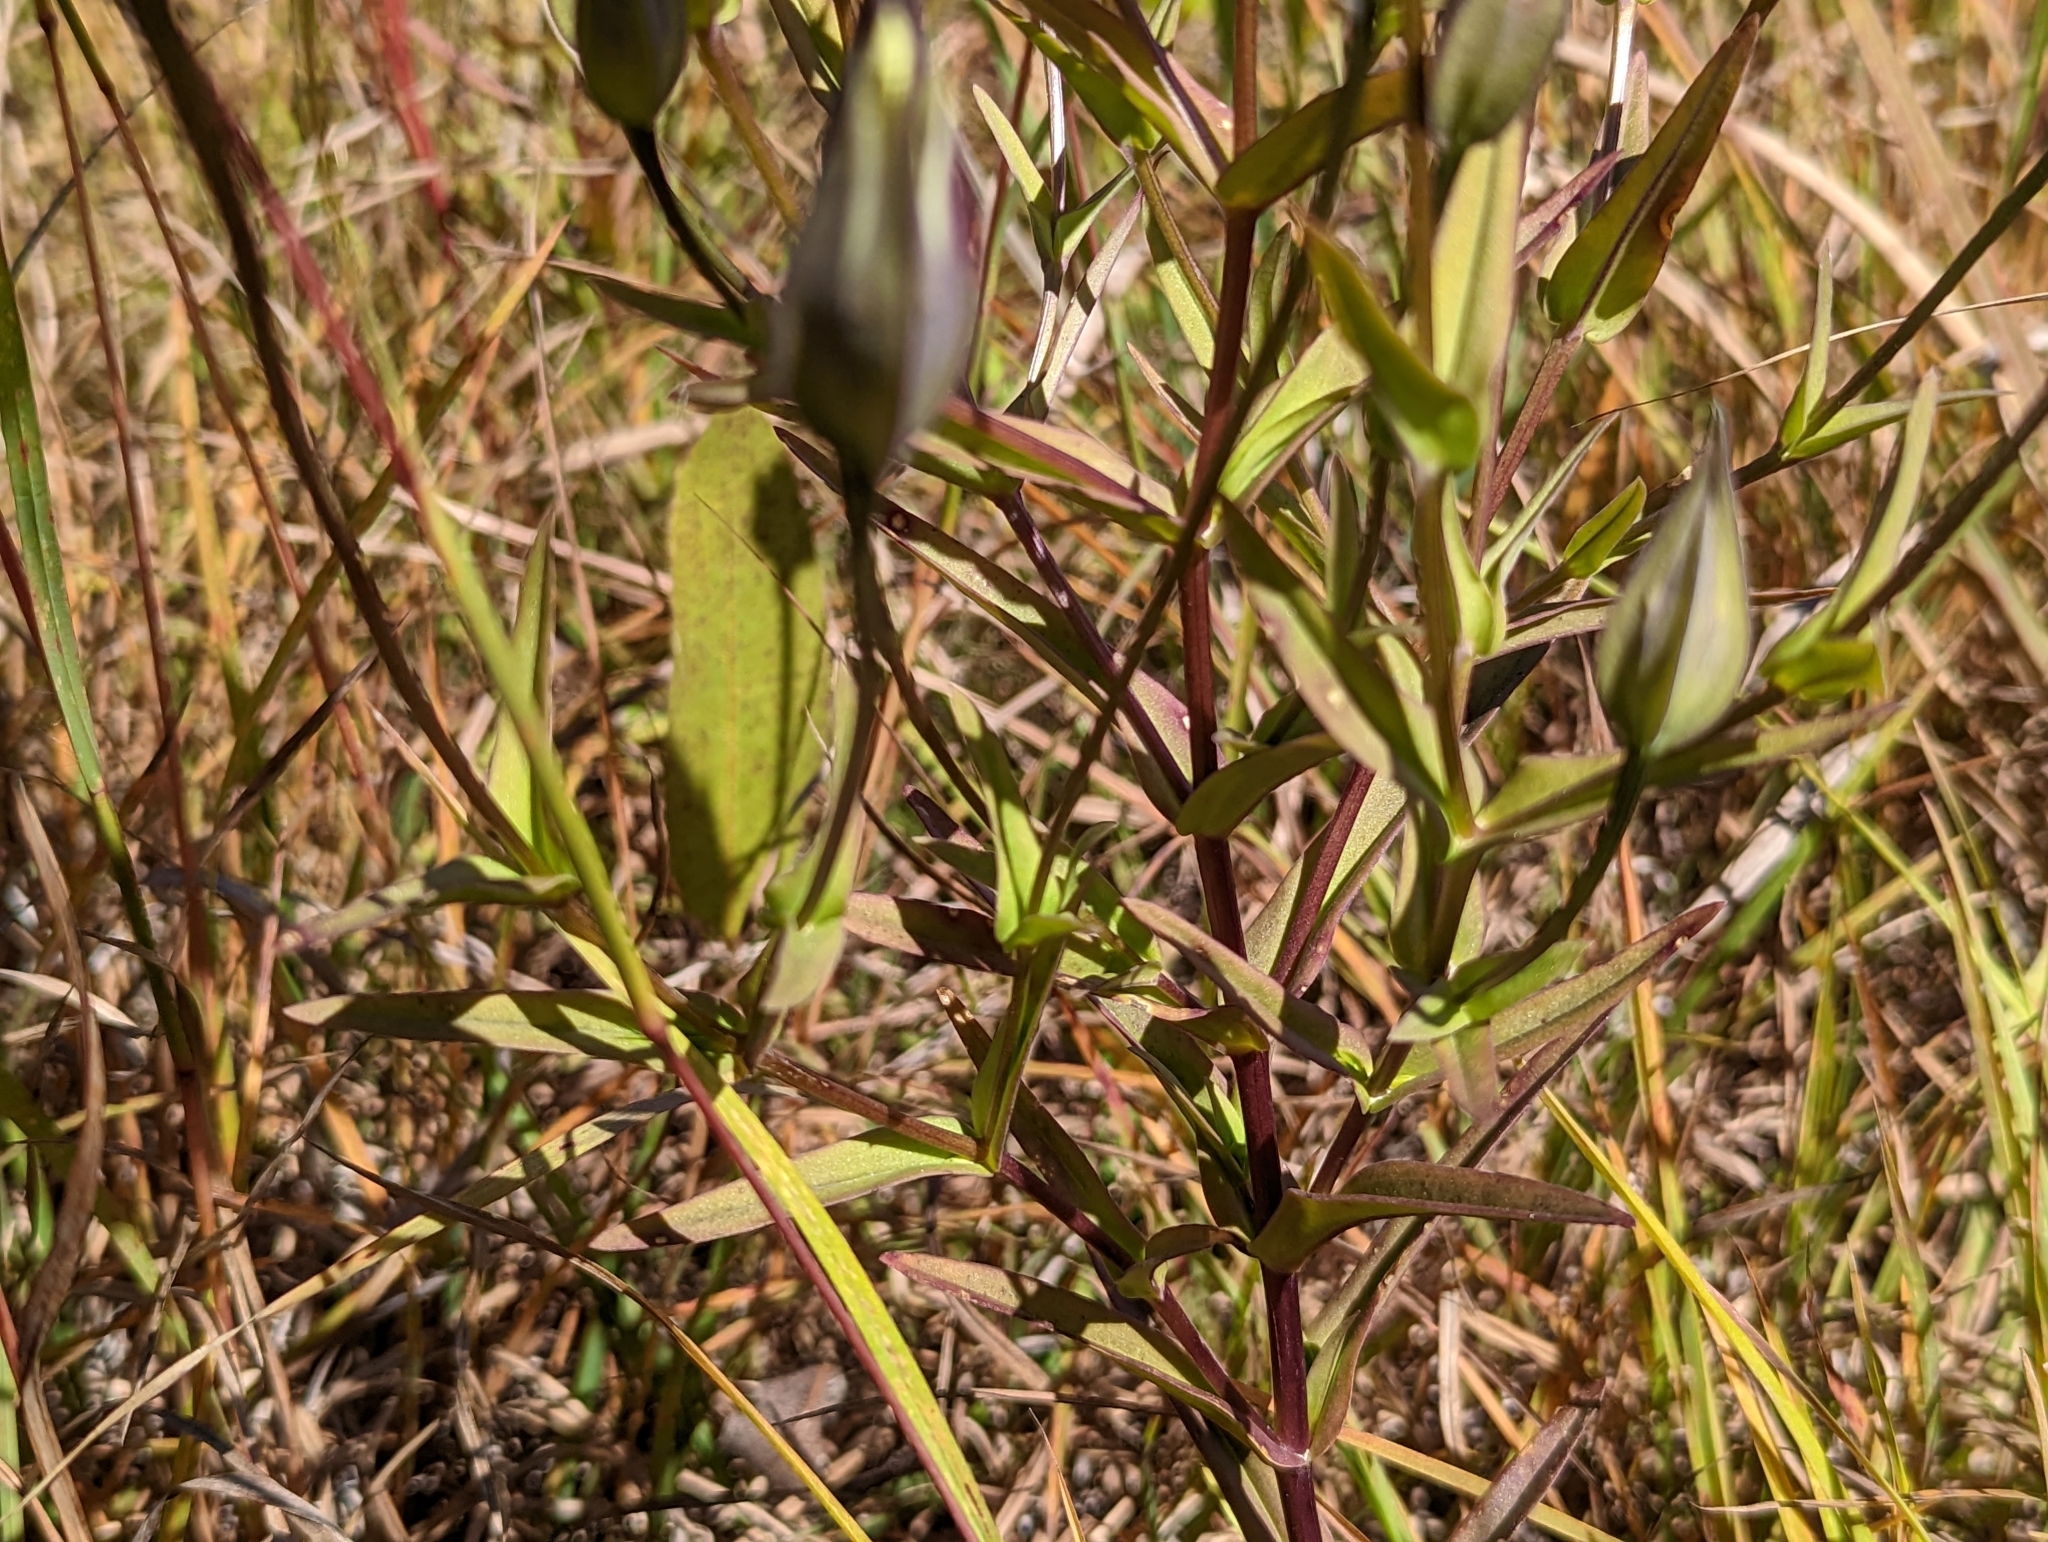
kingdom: Plantae
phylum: Tracheophyta
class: Magnoliopsida
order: Gentianales
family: Gentianaceae
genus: Gentianopsis
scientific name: Gentianopsis crinita
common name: Fringed-gentian
